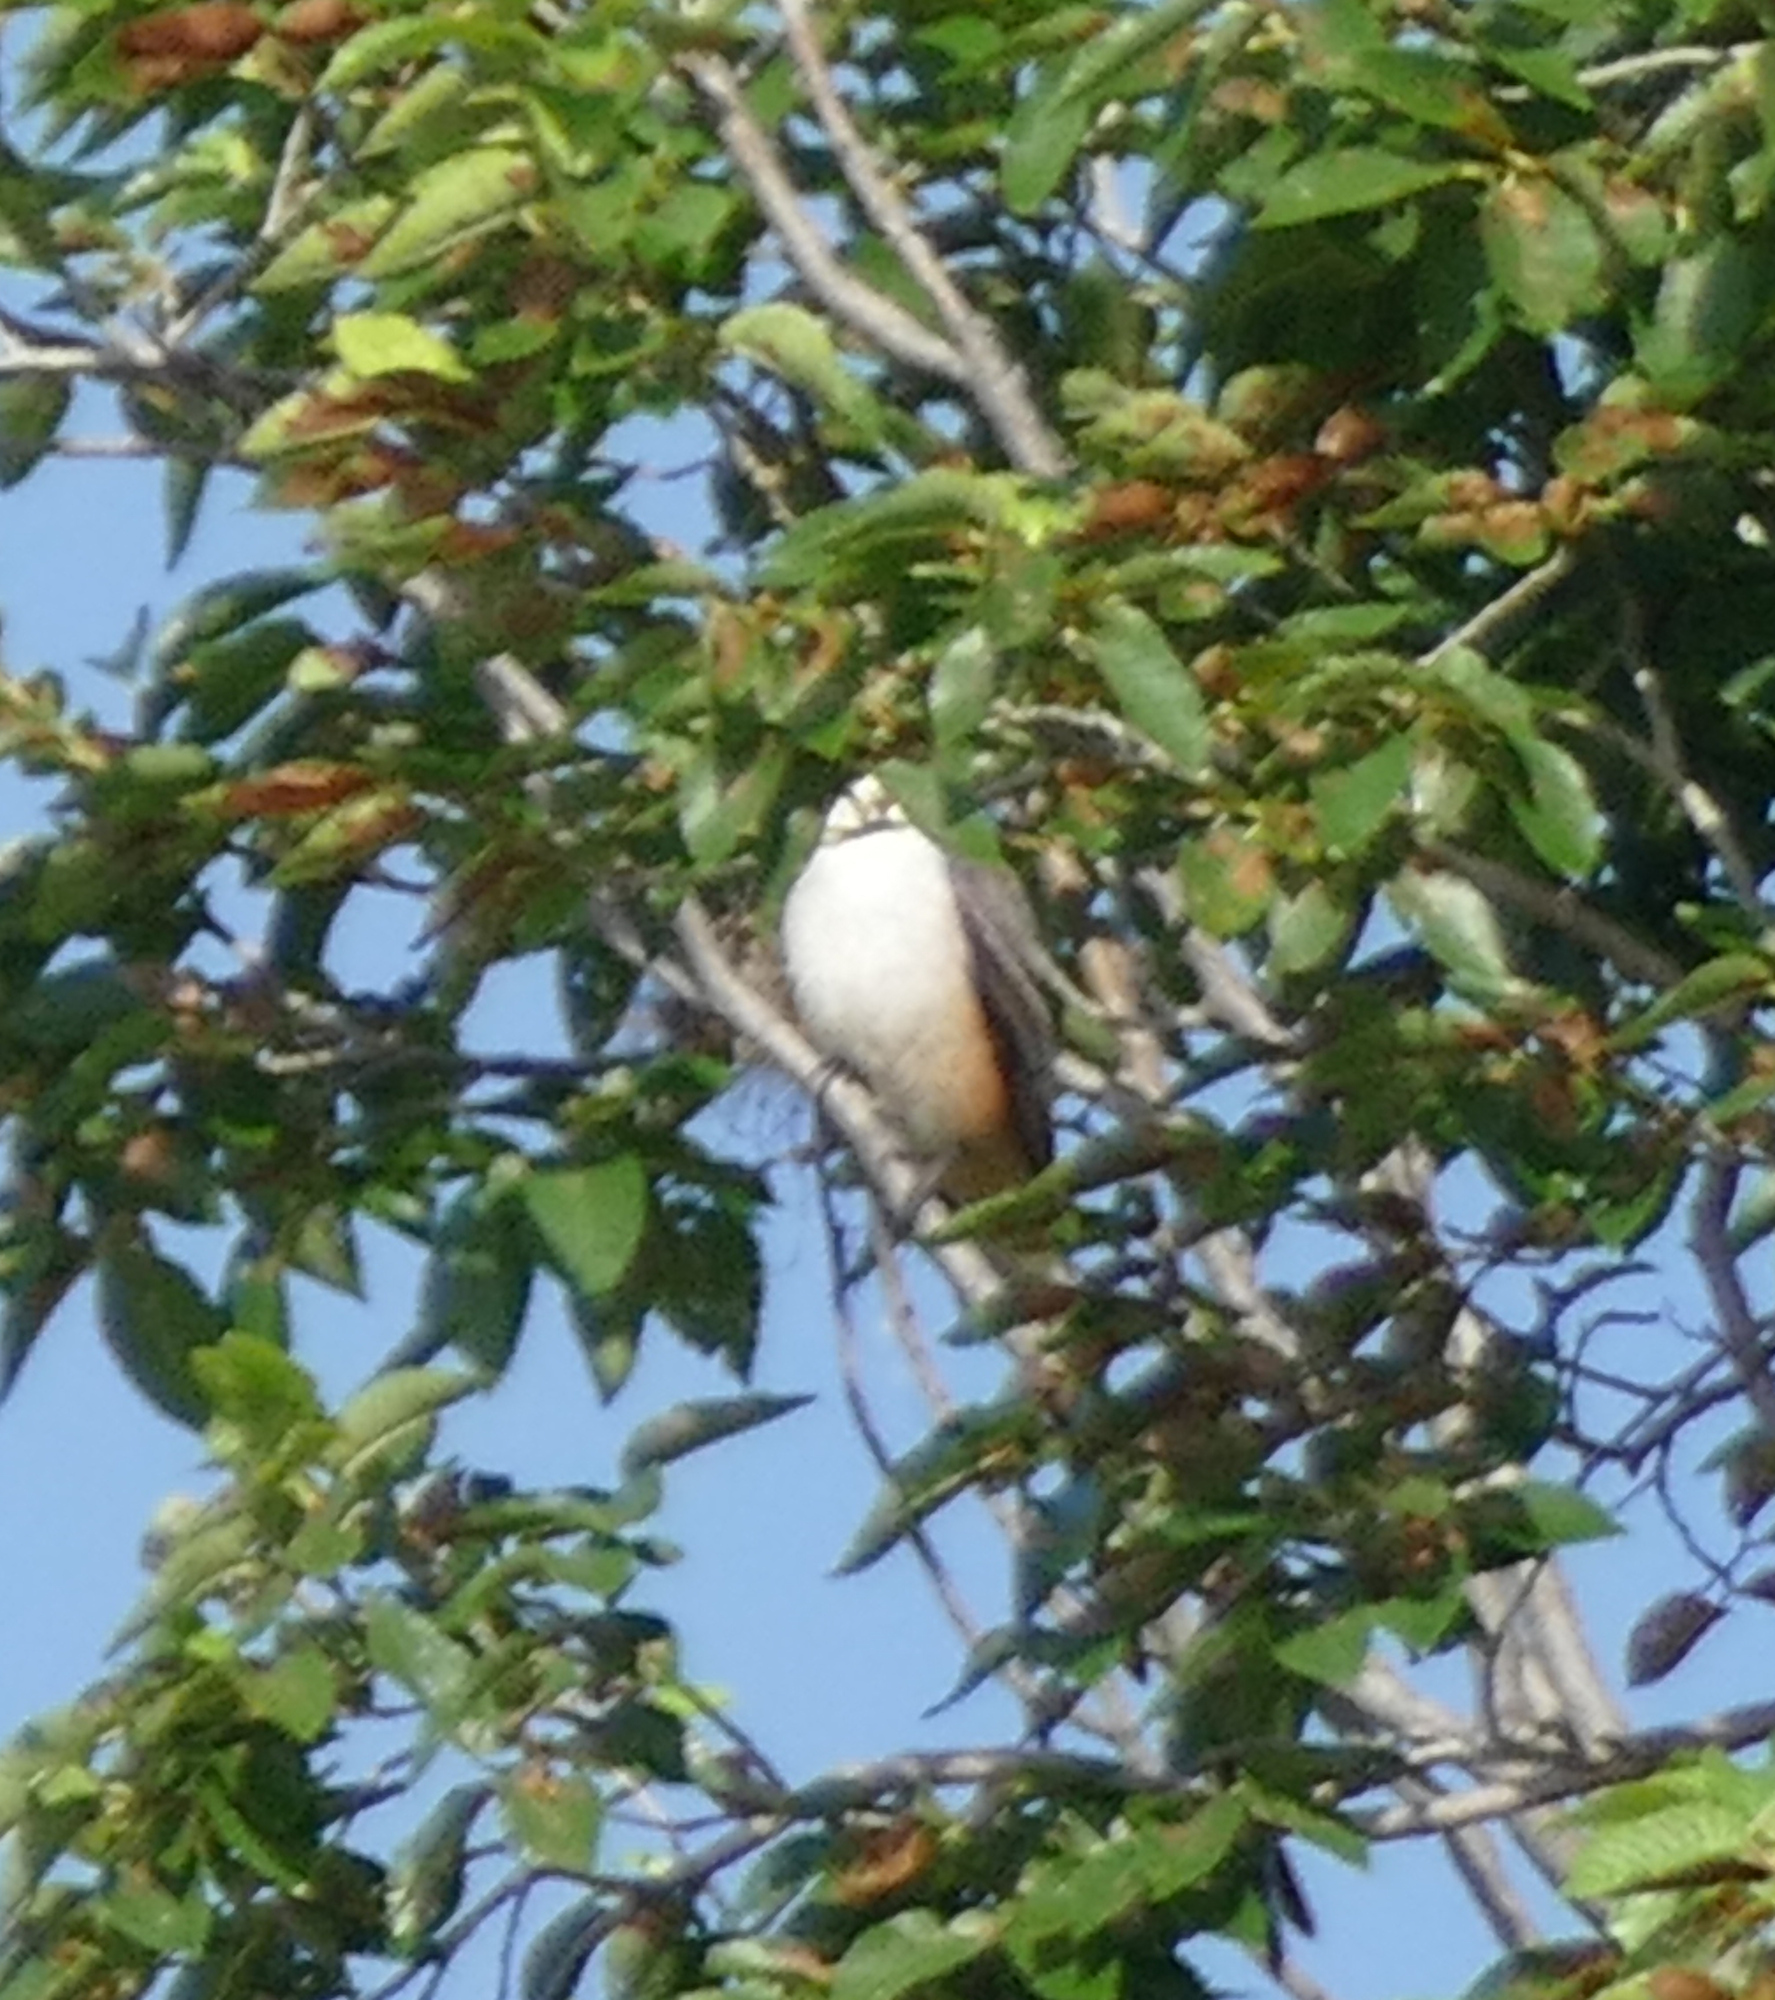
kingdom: Animalia
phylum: Chordata
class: Aves
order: Passeriformes
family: Tyrannidae
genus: Tyrannus
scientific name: Tyrannus forficatus
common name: Scissor-tailed flycatcher
